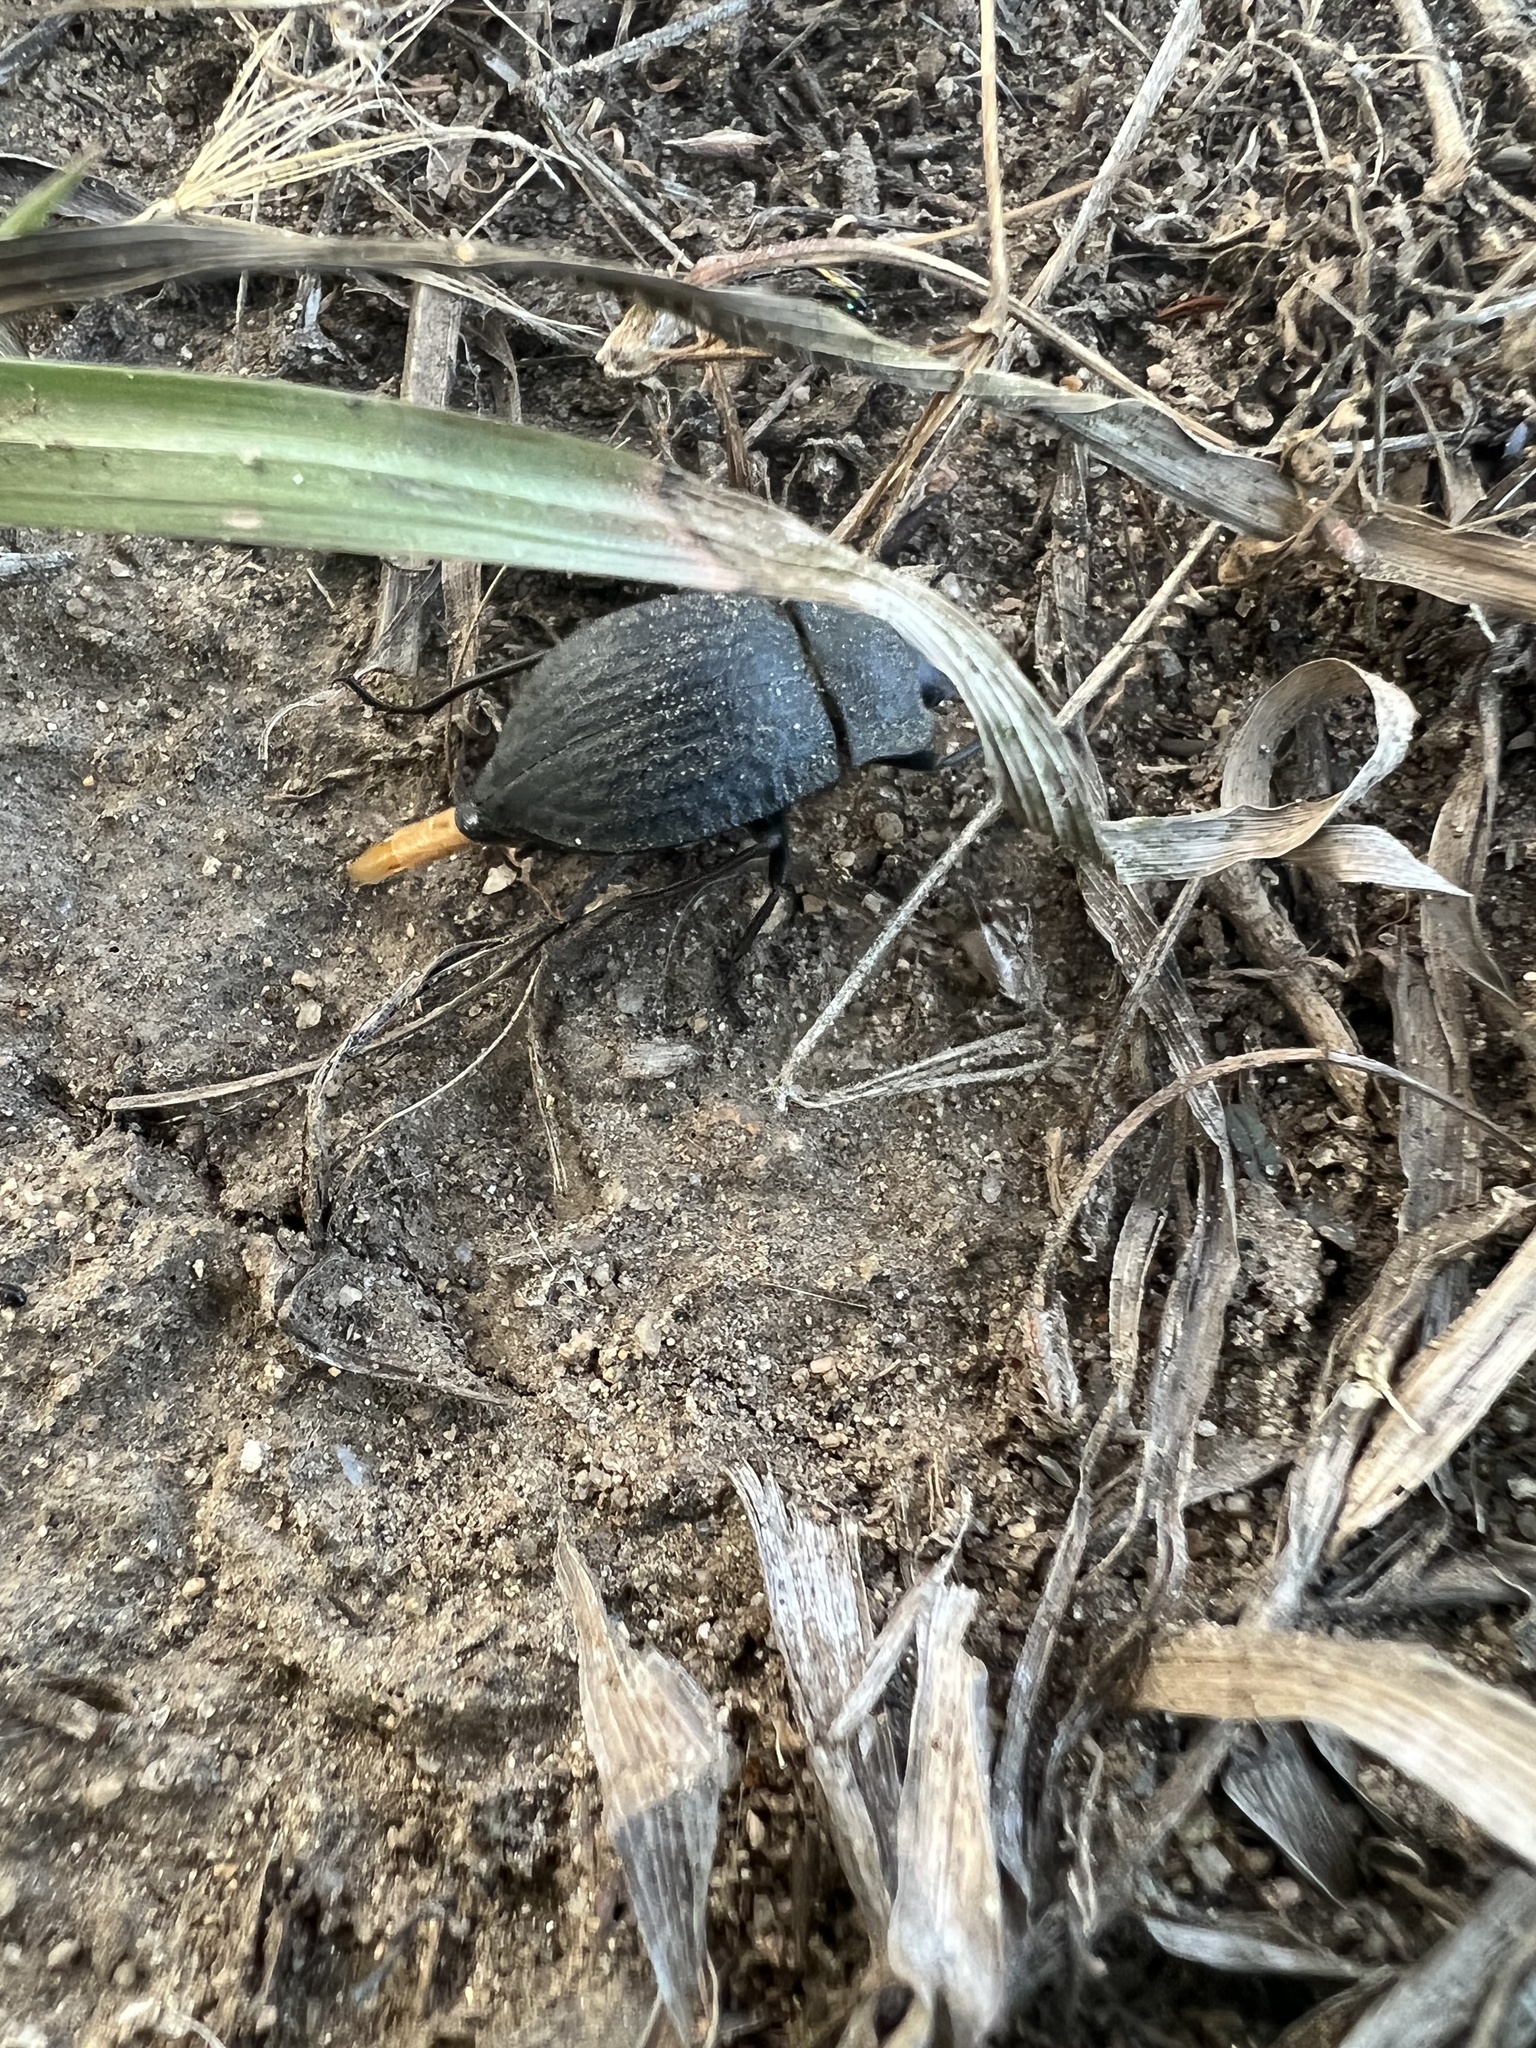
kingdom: Animalia
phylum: Arthropoda
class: Insecta
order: Coleoptera
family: Tenebrionidae
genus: Stenomorpha
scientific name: Stenomorpha opaca
